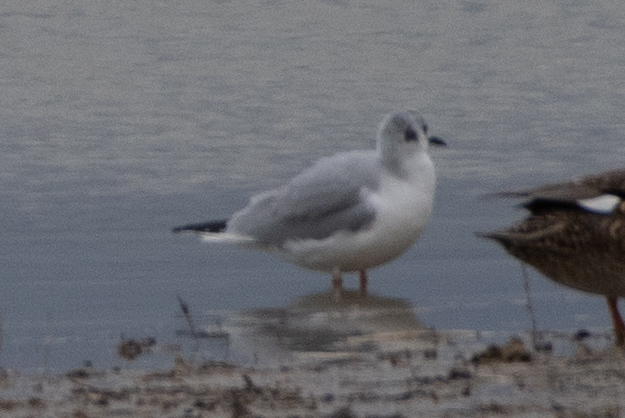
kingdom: Animalia
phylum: Chordata
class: Aves
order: Charadriiformes
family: Laridae
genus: Chroicocephalus
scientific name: Chroicocephalus philadelphia
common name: Bonaparte's gull
